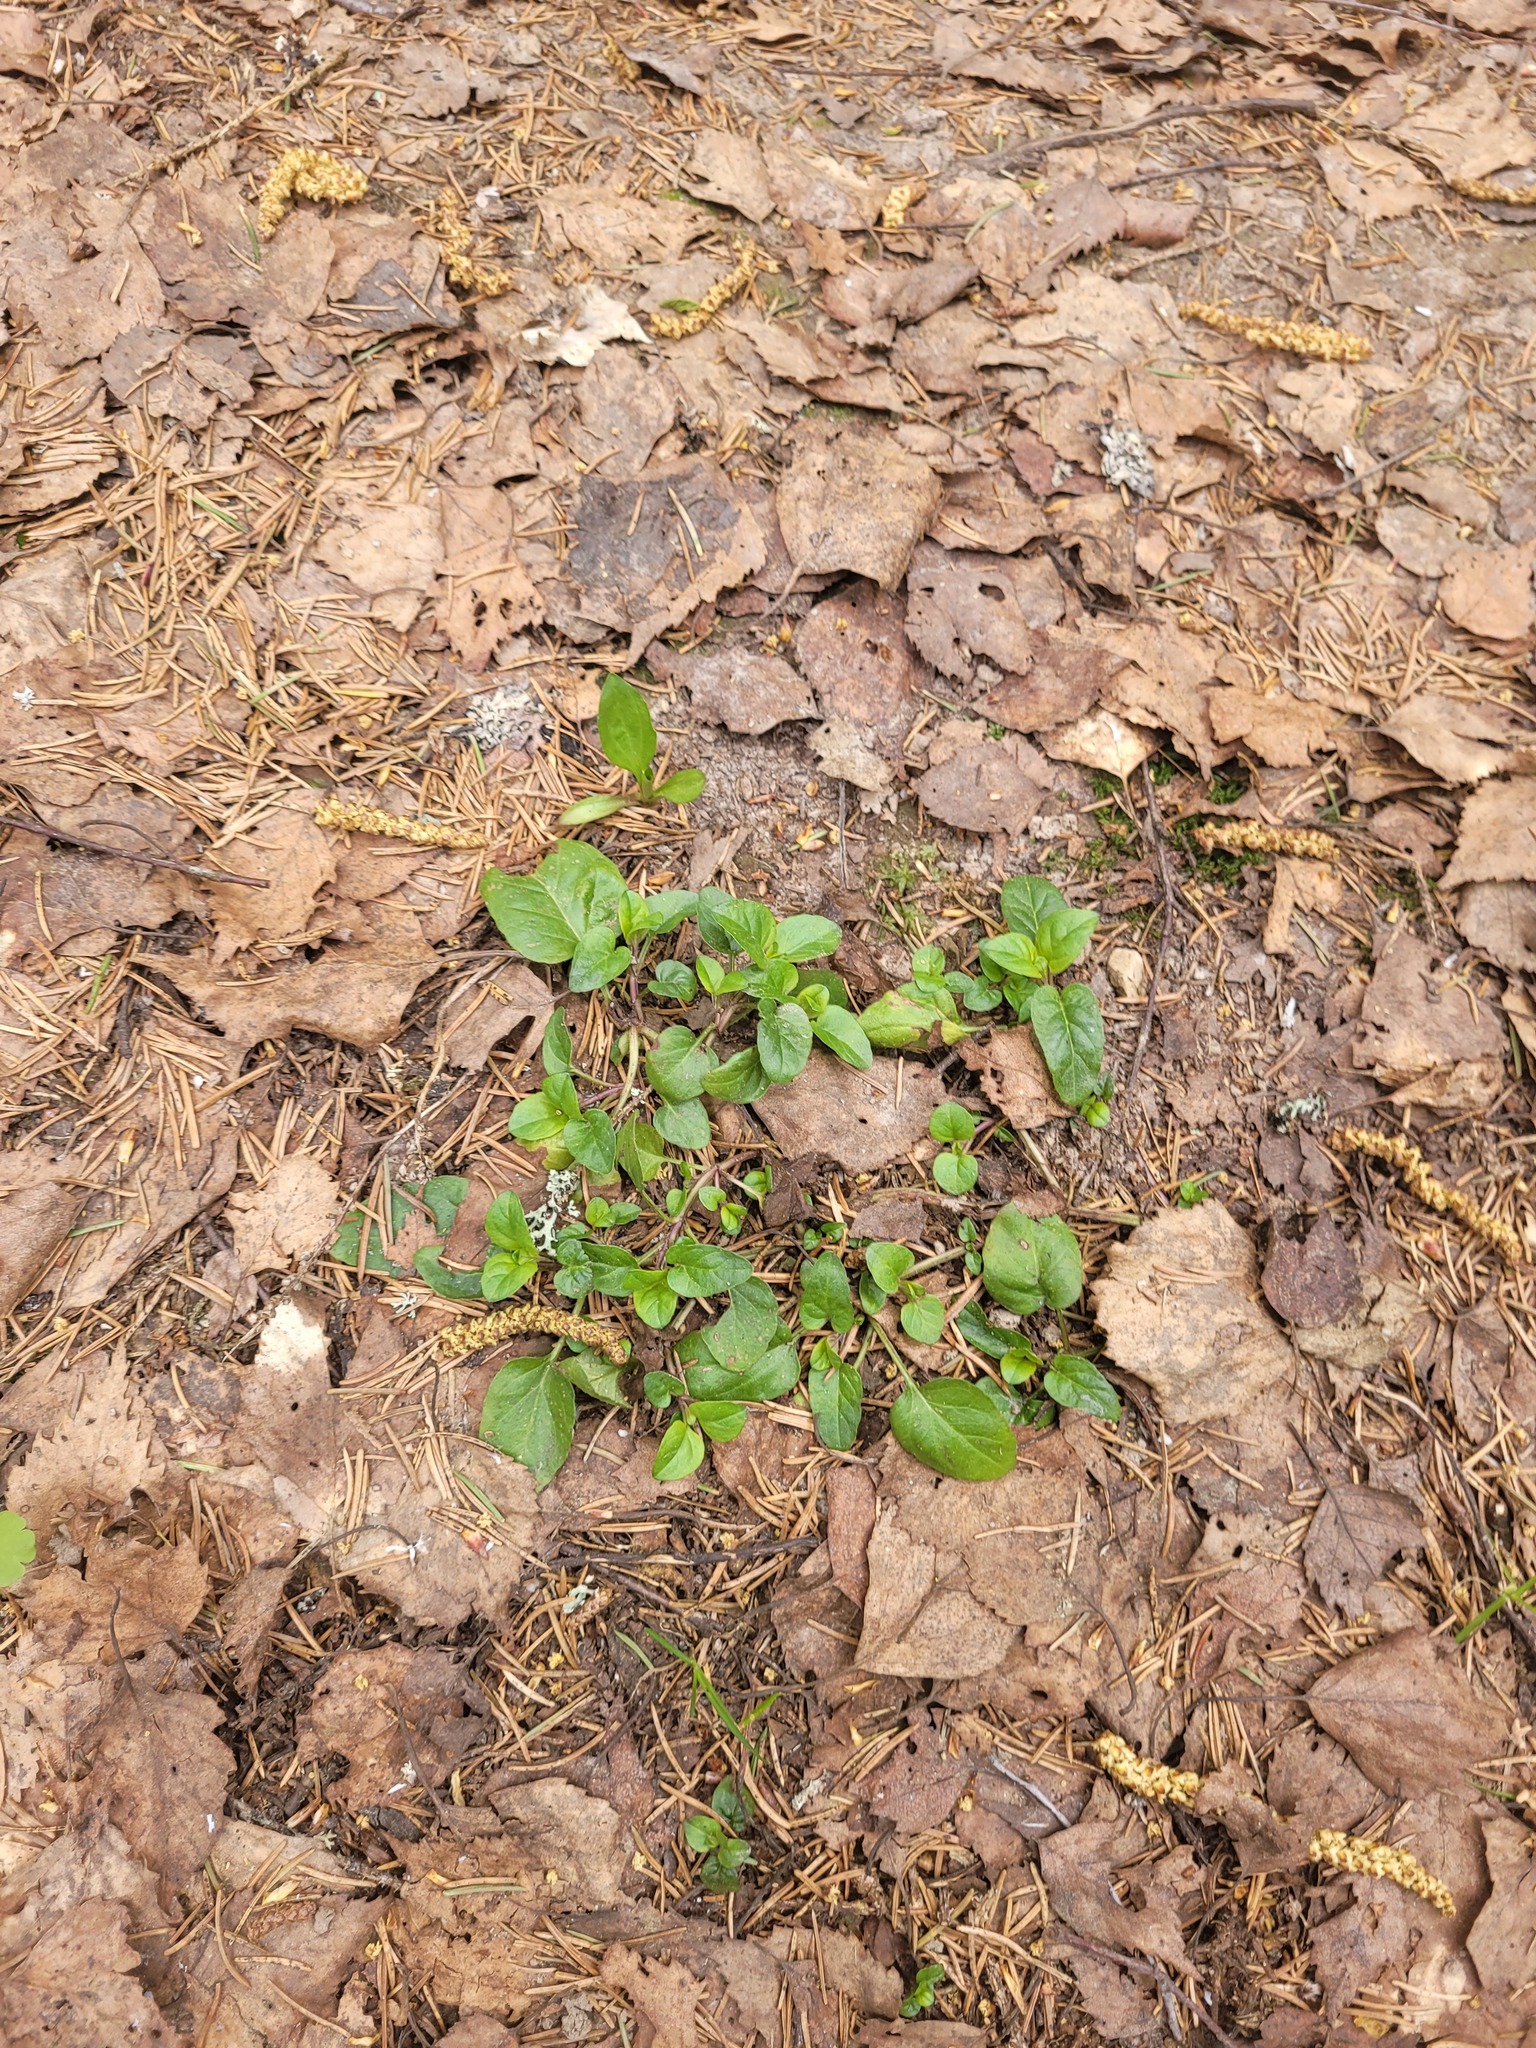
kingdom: Plantae
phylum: Tracheophyta
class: Magnoliopsida
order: Lamiales
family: Lamiaceae
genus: Prunella
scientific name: Prunella vulgaris
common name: Heal-all
